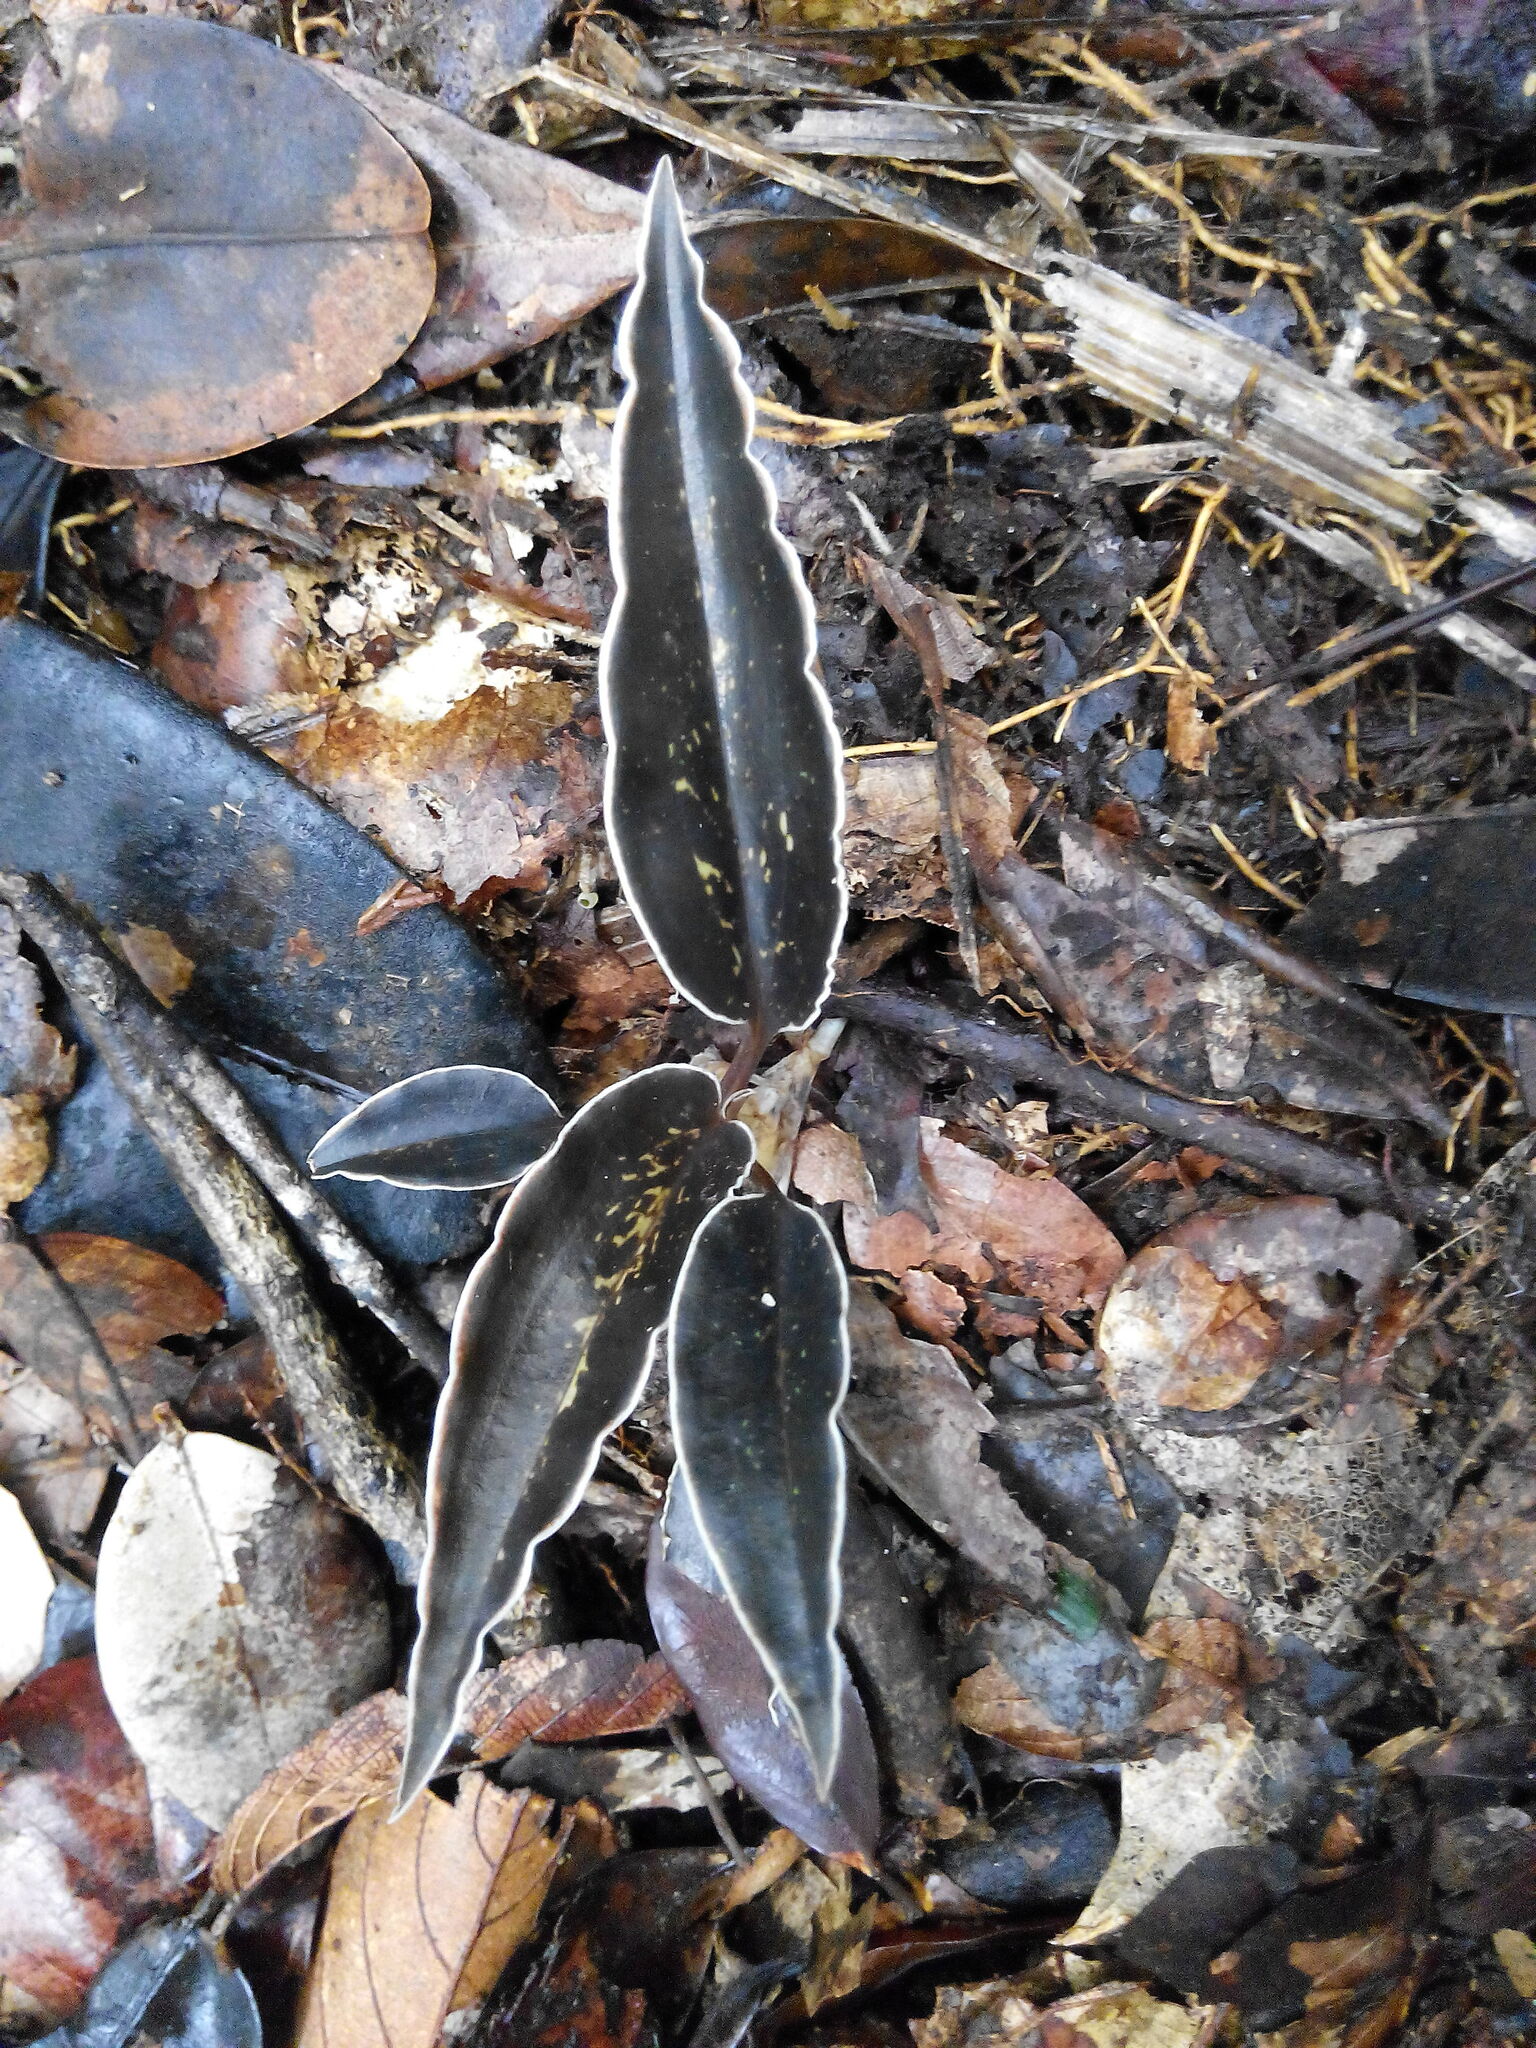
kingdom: Plantae
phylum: Tracheophyta
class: Liliopsida
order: Asparagales
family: Orchidaceae
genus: Pelexia
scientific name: Pelexia goninensis
